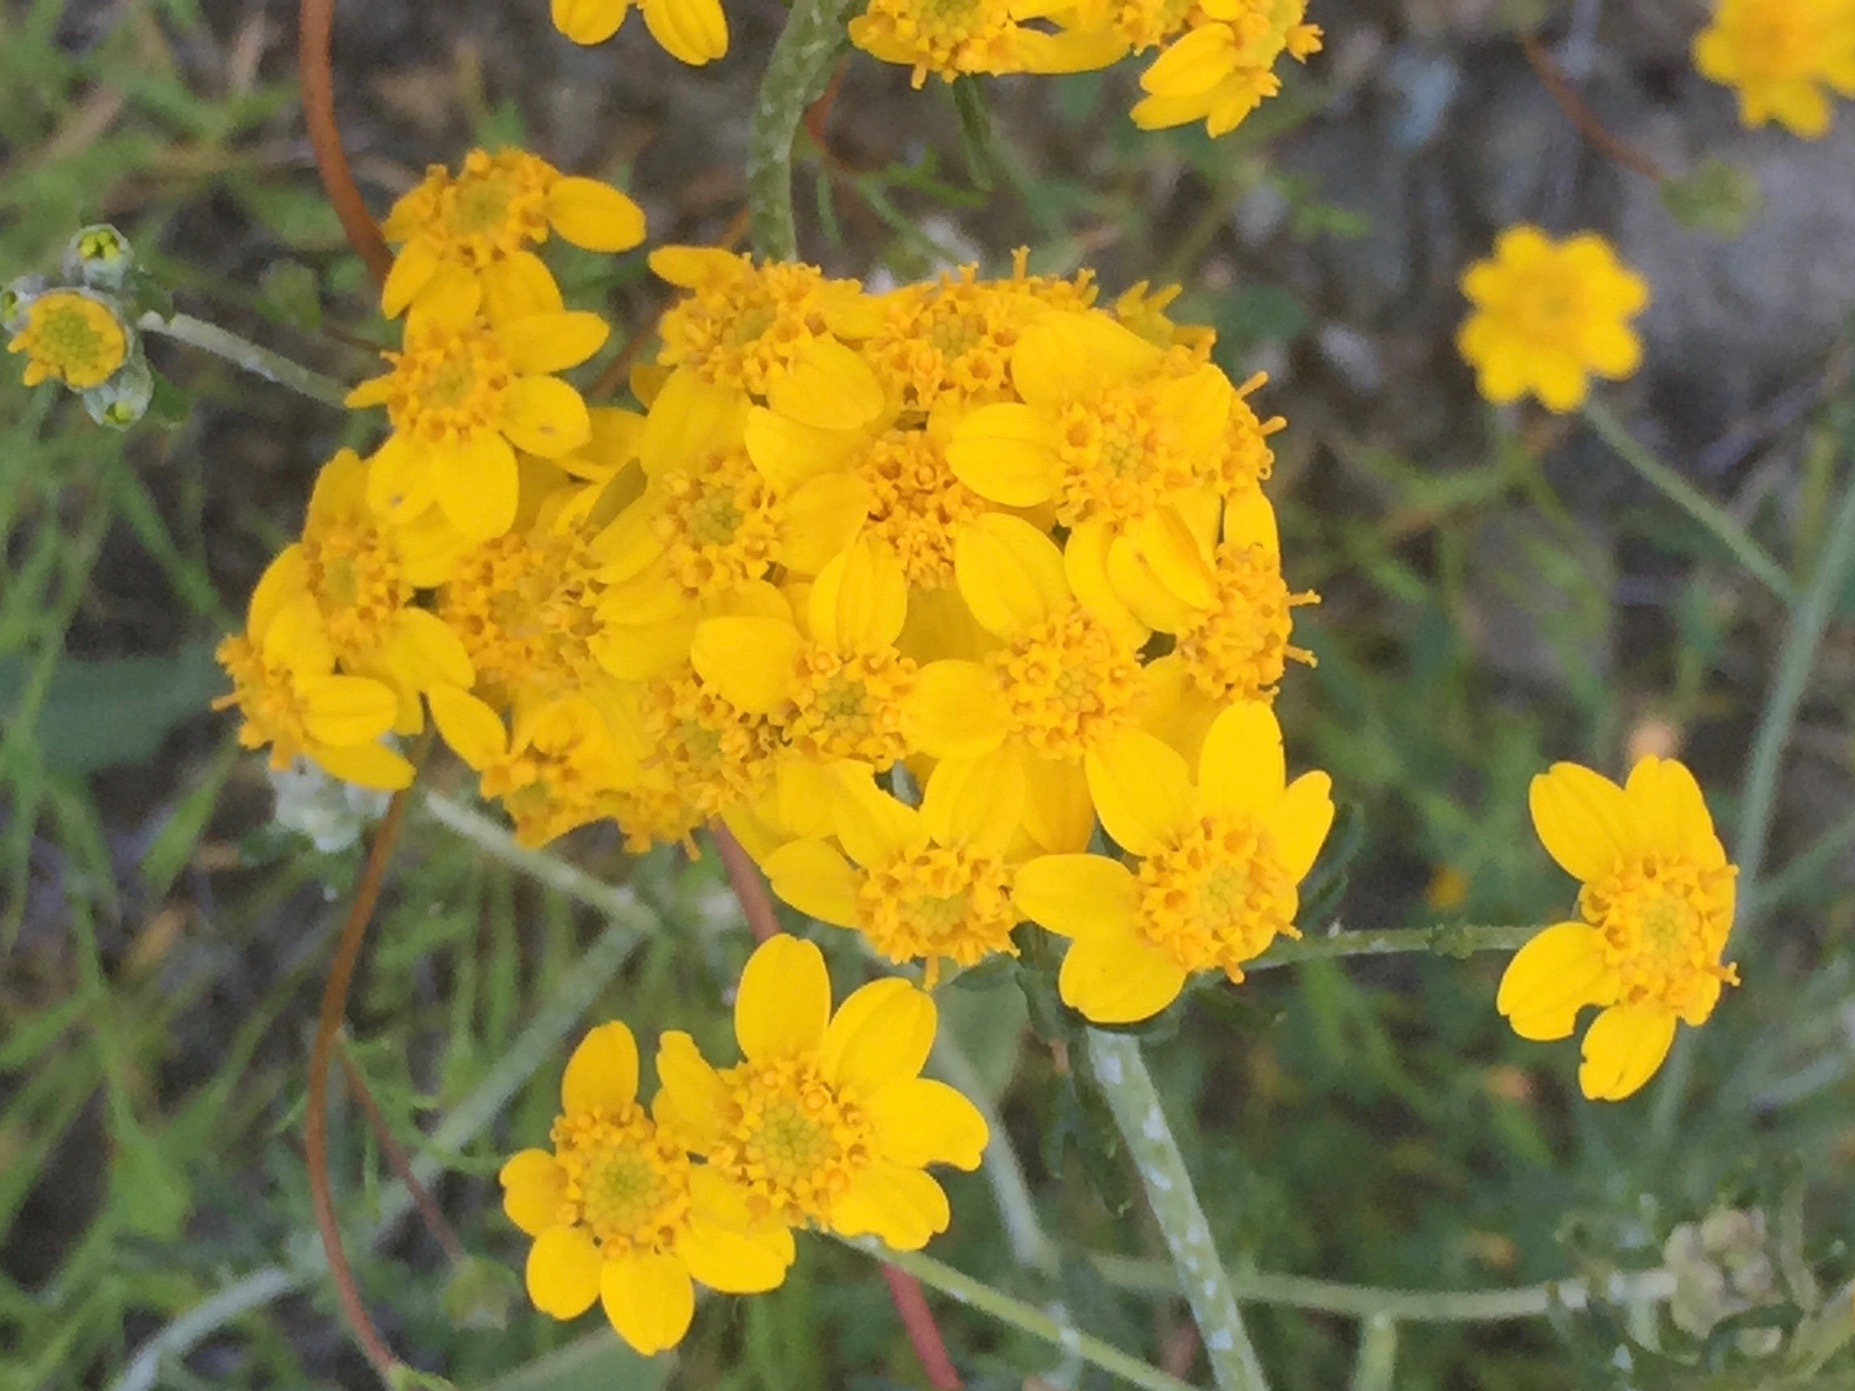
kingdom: Plantae
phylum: Tracheophyta
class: Magnoliopsida
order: Asterales
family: Asteraceae
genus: Eriophyllum
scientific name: Eriophyllum confertiflorum
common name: Golden-yarrow
